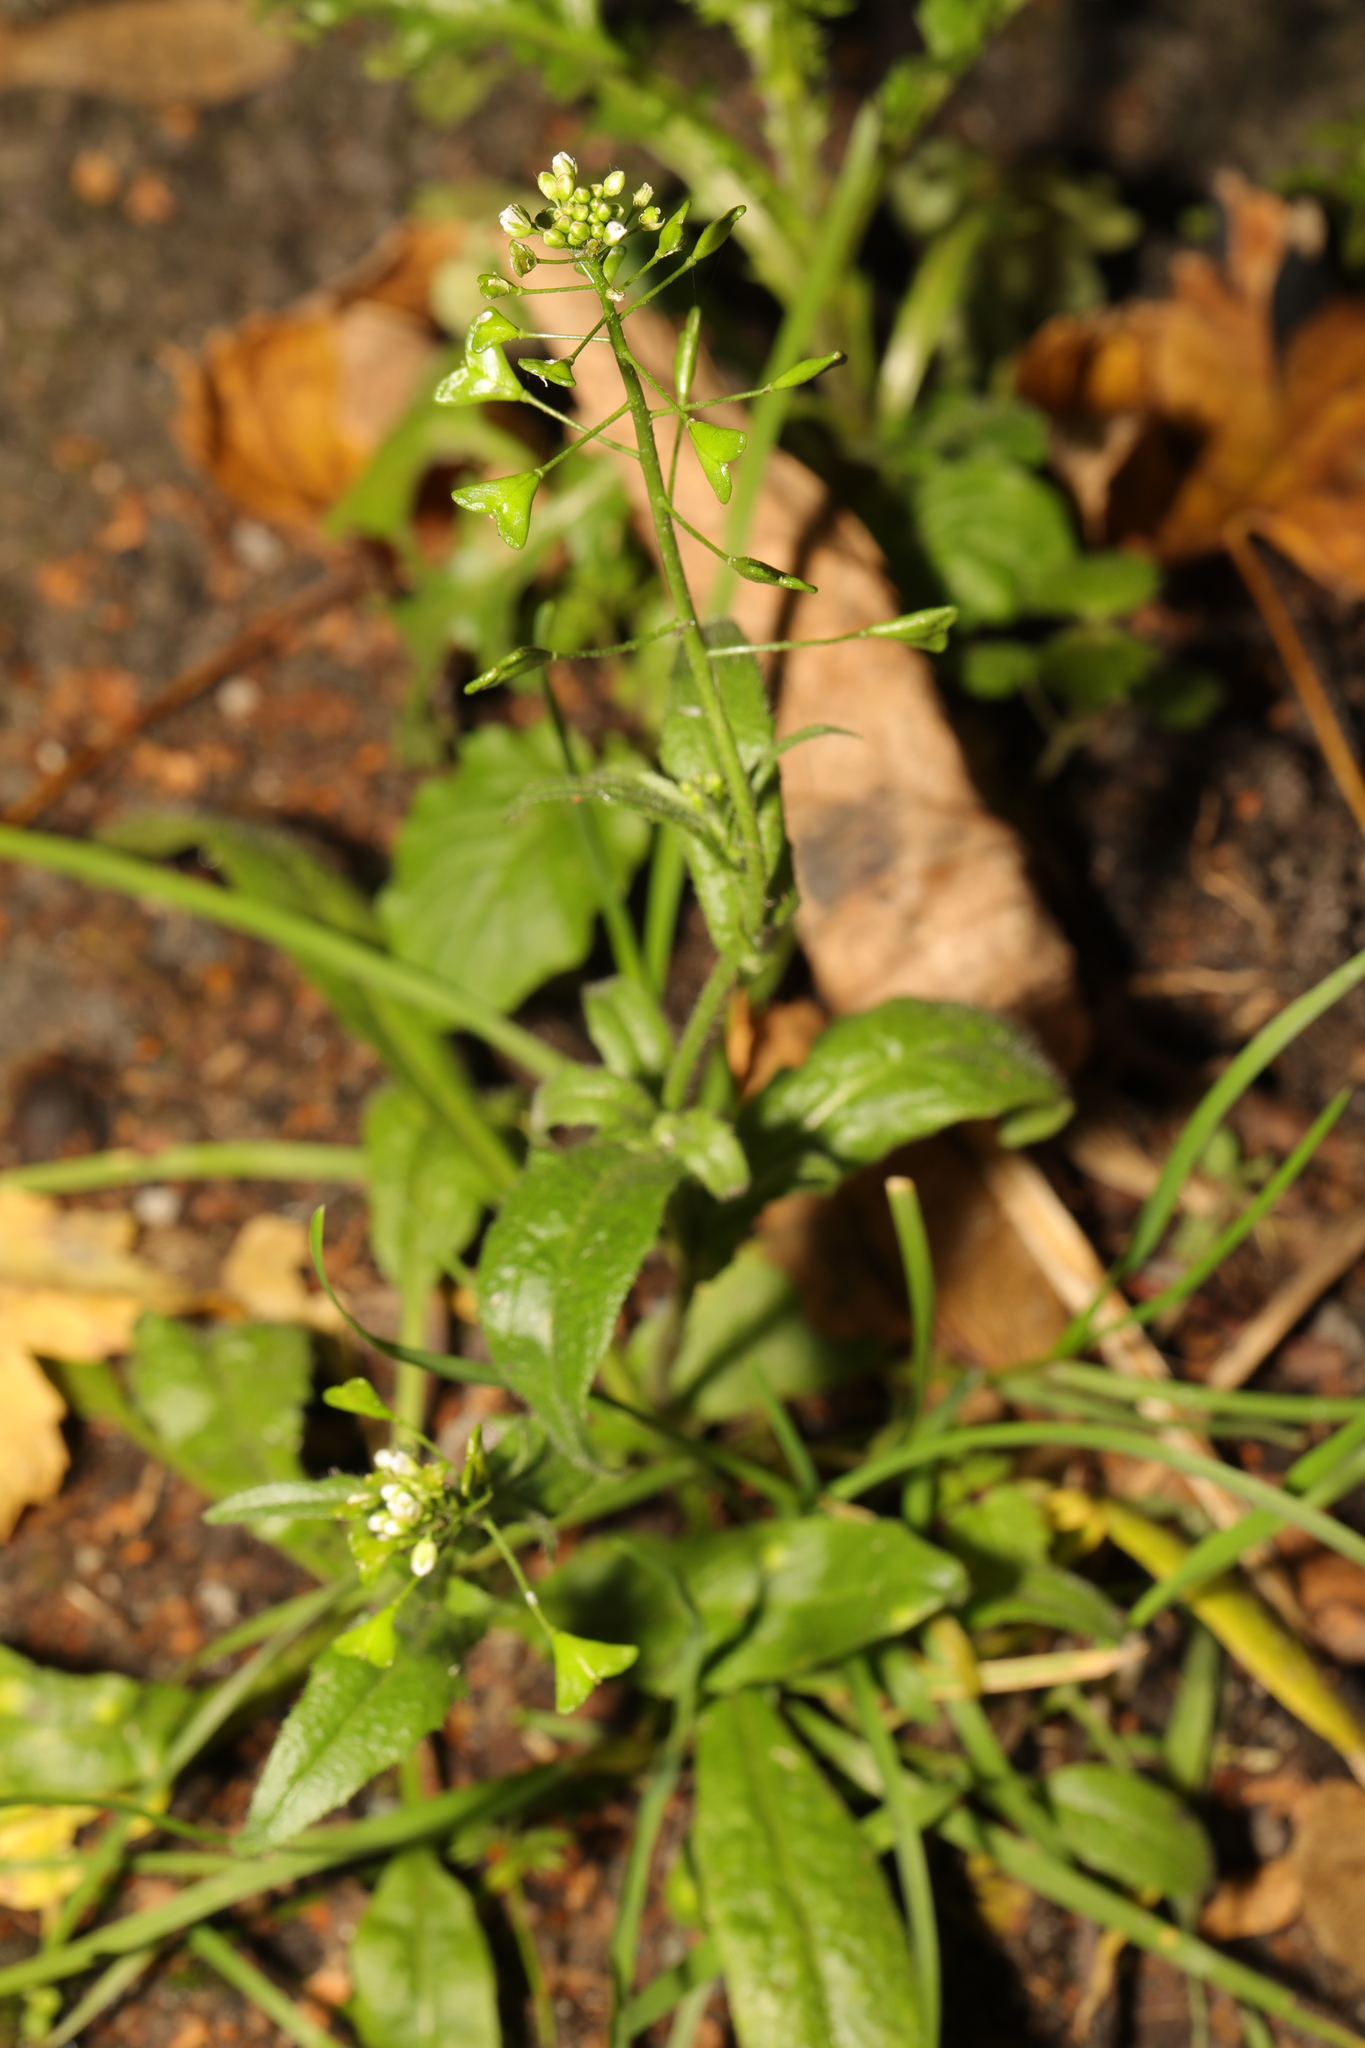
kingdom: Plantae
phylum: Tracheophyta
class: Magnoliopsida
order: Brassicales
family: Brassicaceae
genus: Capsella
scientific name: Capsella bursa-pastoris
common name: Shepherd's purse
